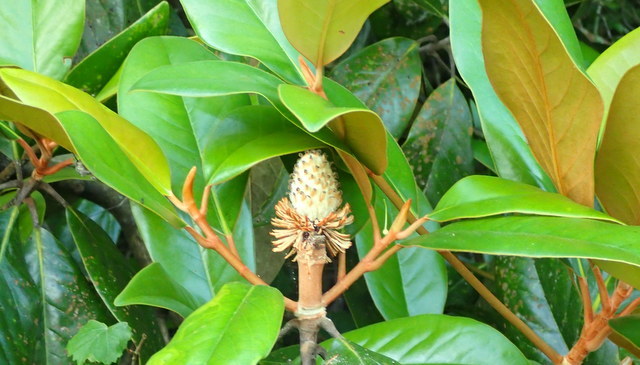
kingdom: Plantae
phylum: Tracheophyta
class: Magnoliopsida
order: Magnoliales
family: Magnoliaceae
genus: Magnolia
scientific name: Magnolia grandiflora
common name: Southern magnolia
